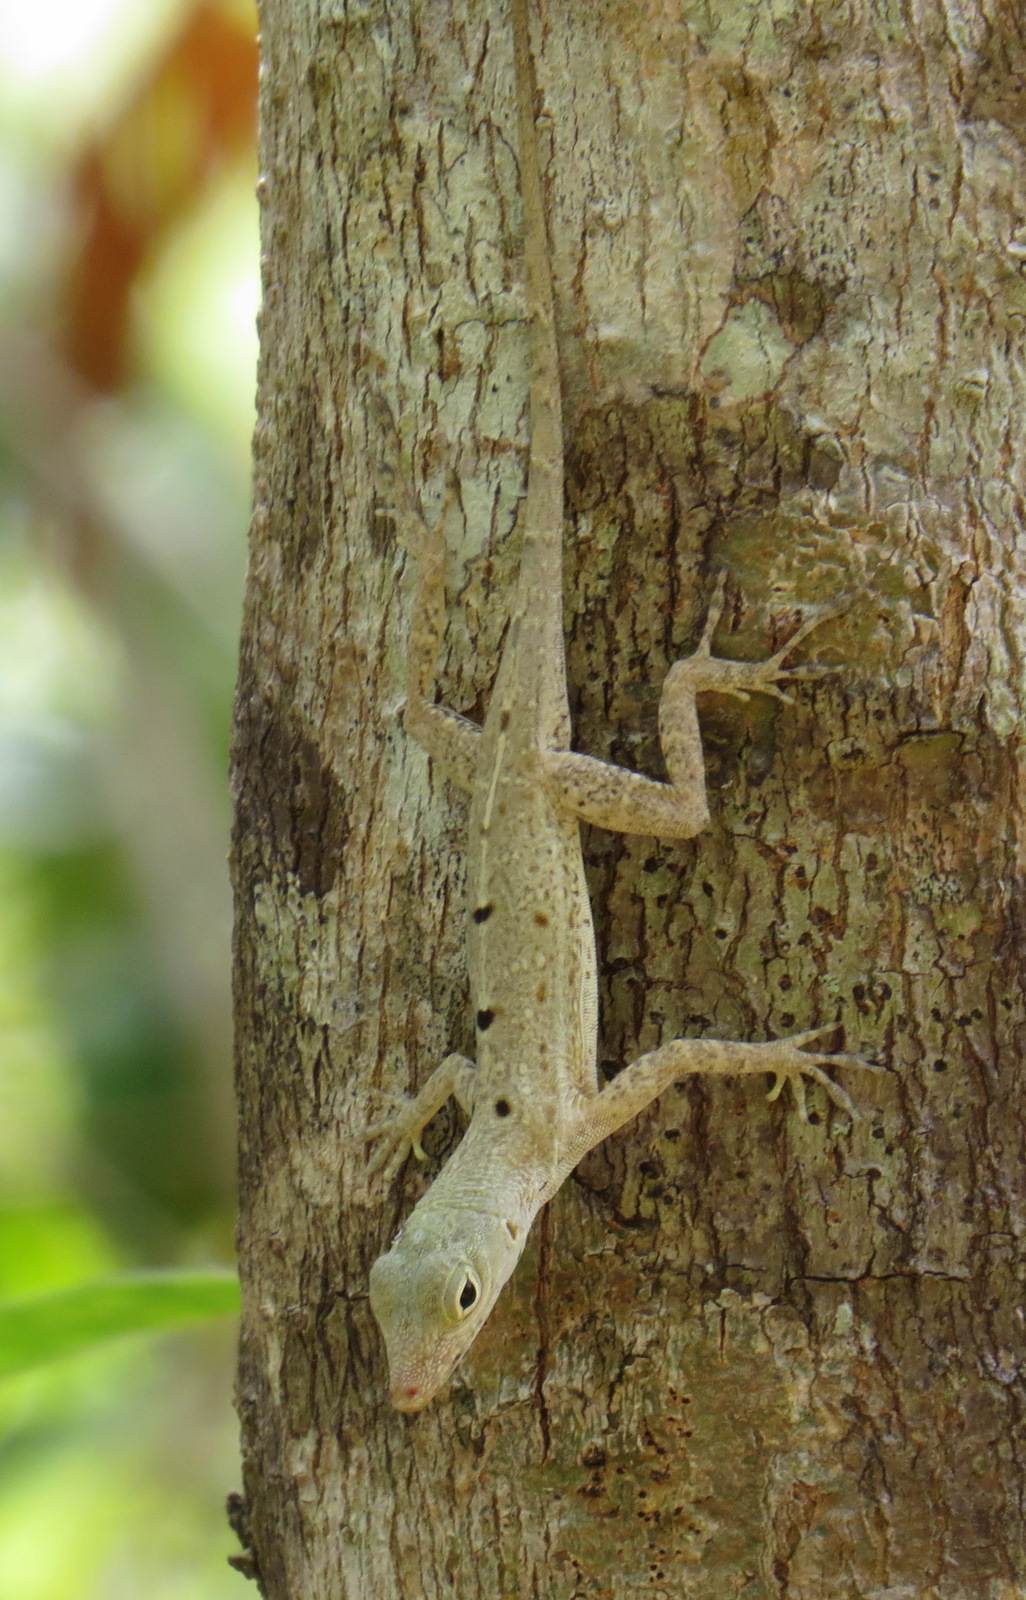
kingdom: Animalia
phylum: Chordata
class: Squamata
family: Dactyloidae
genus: Anolis
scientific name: Anolis stratulus
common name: Banded anole
